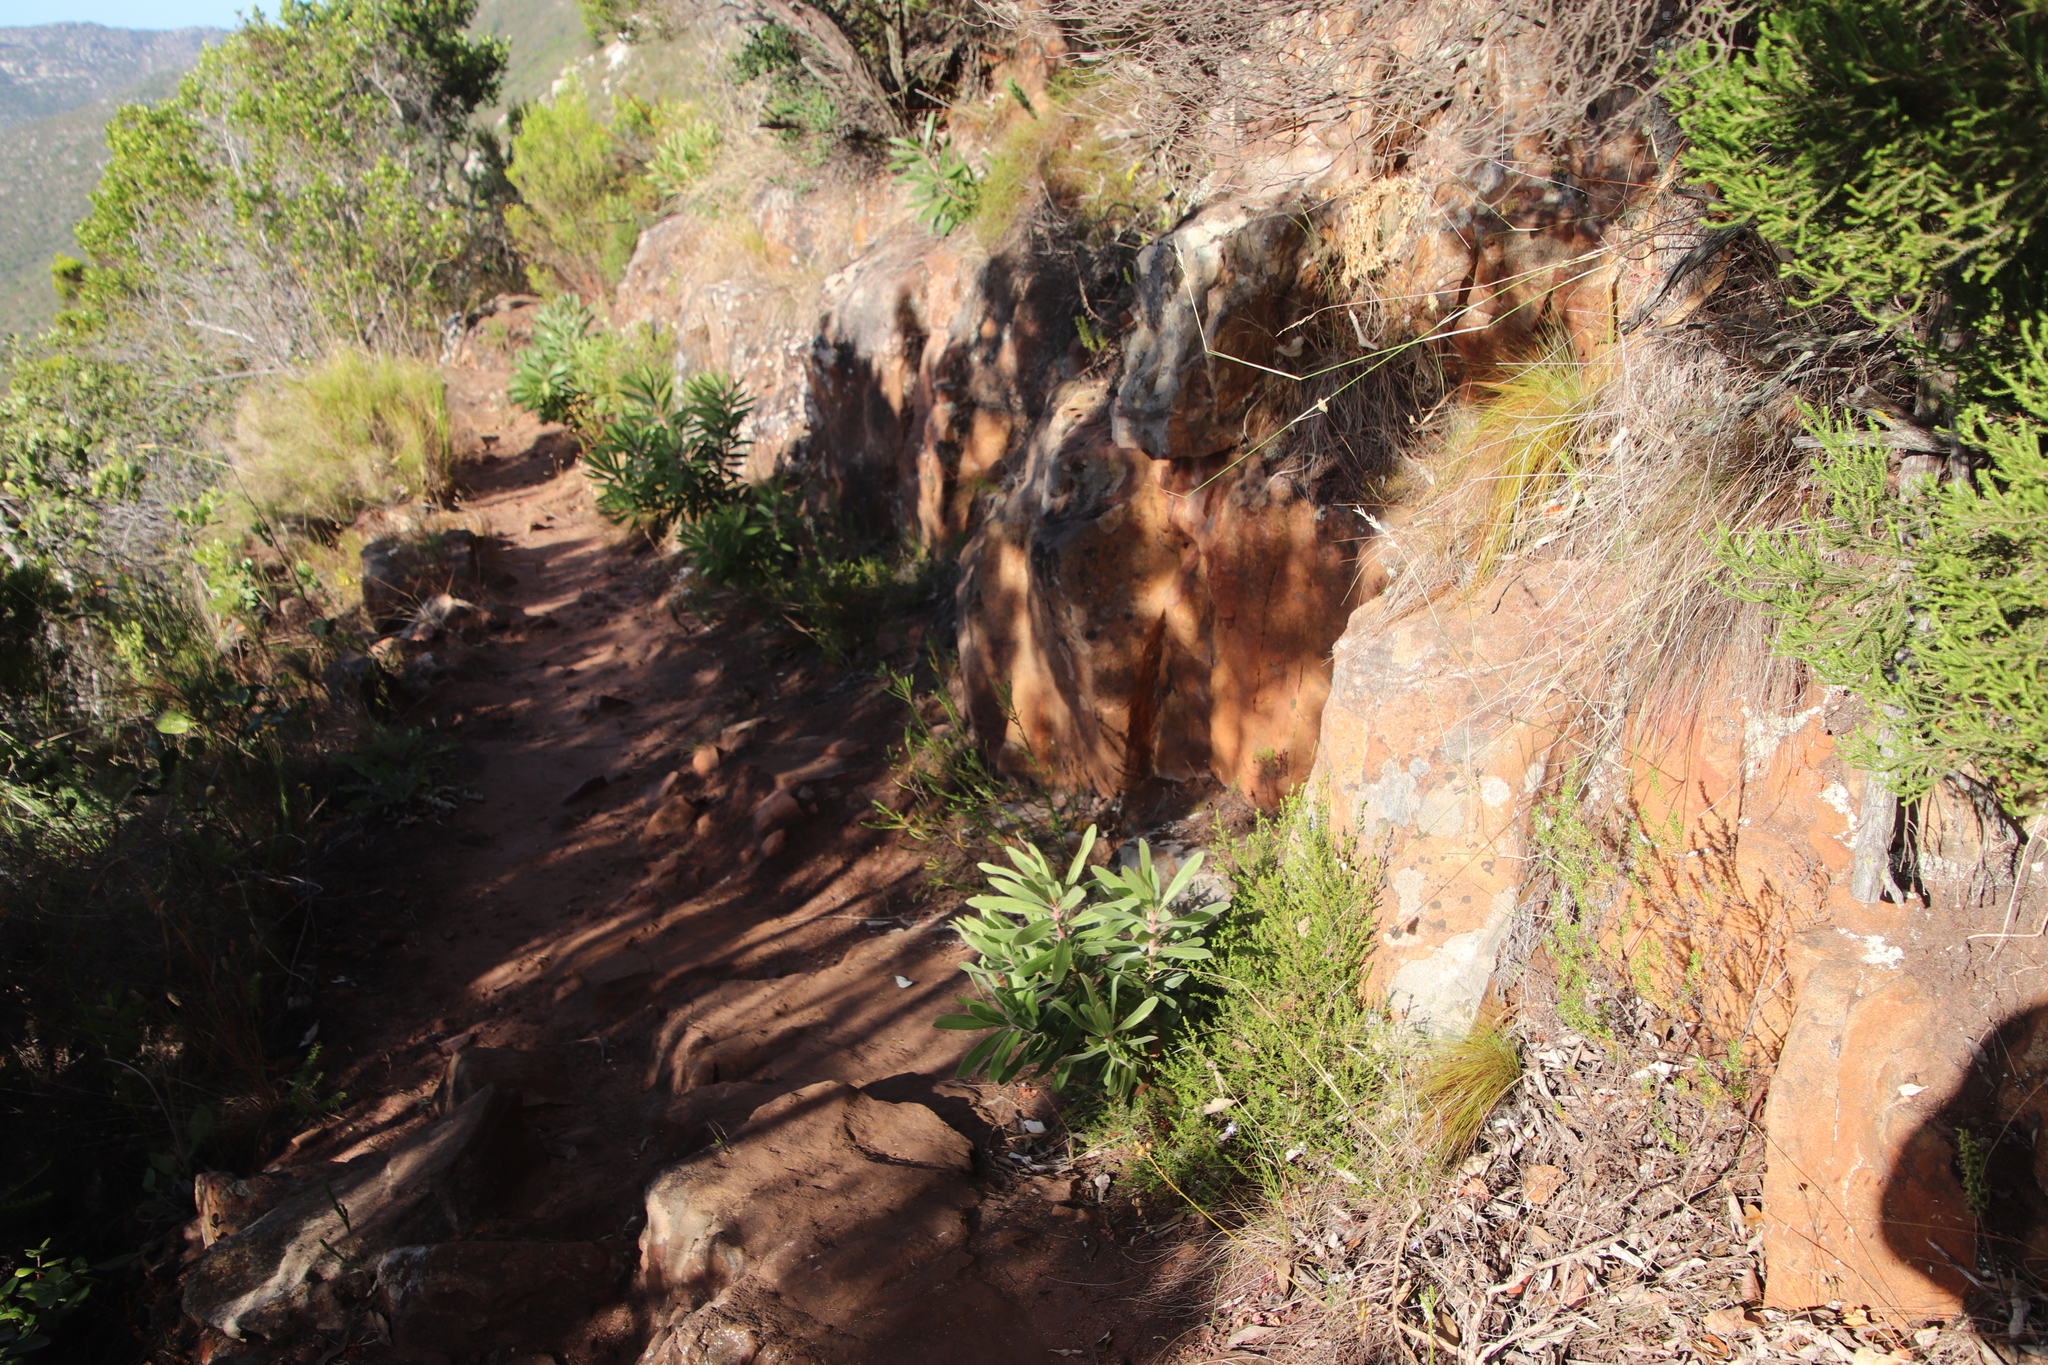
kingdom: Plantae
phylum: Tracheophyta
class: Magnoliopsida
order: Proteales
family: Proteaceae
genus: Protea
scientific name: Protea lepidocarpodendron
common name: Black-bearded protea
